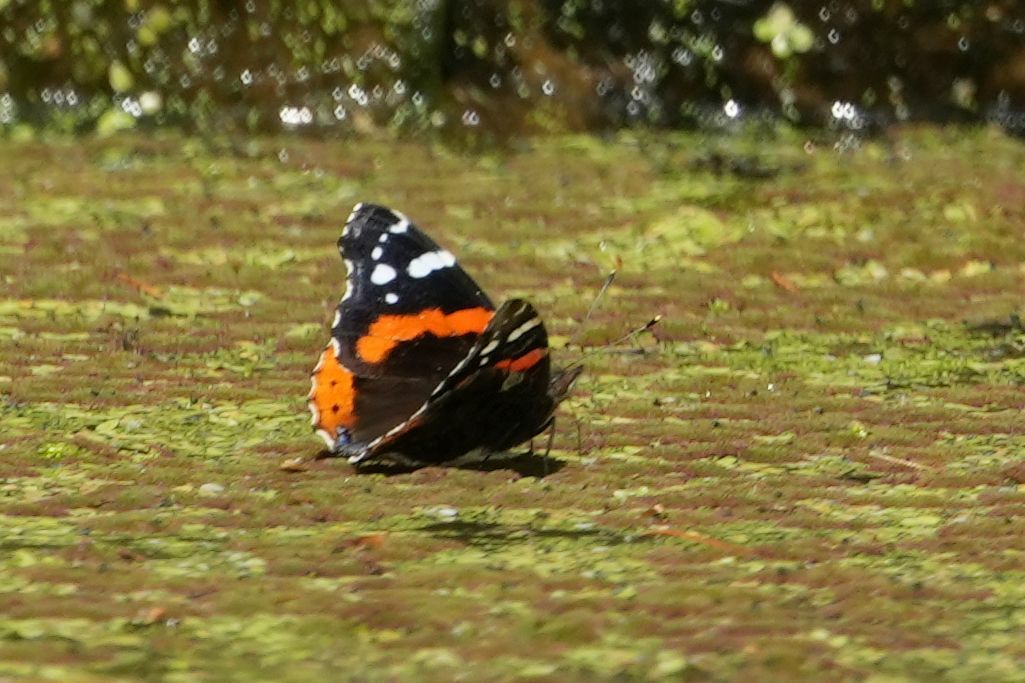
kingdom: Animalia
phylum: Arthropoda
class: Insecta
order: Lepidoptera
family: Nymphalidae
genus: Vanessa
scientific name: Vanessa atalanta
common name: Red admiral
